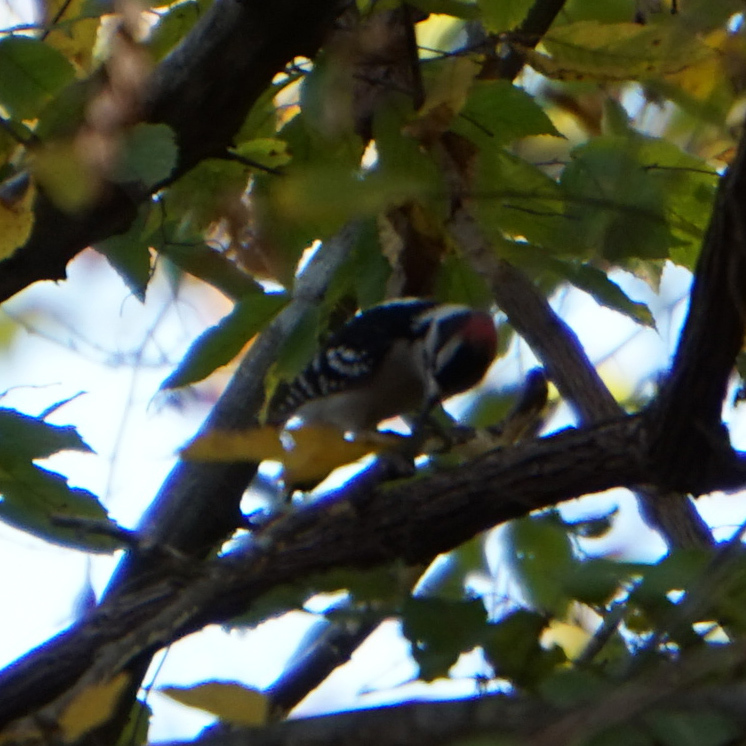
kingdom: Animalia
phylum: Chordata
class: Aves
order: Piciformes
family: Picidae
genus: Dryobates
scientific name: Dryobates pubescens
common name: Downy woodpecker
